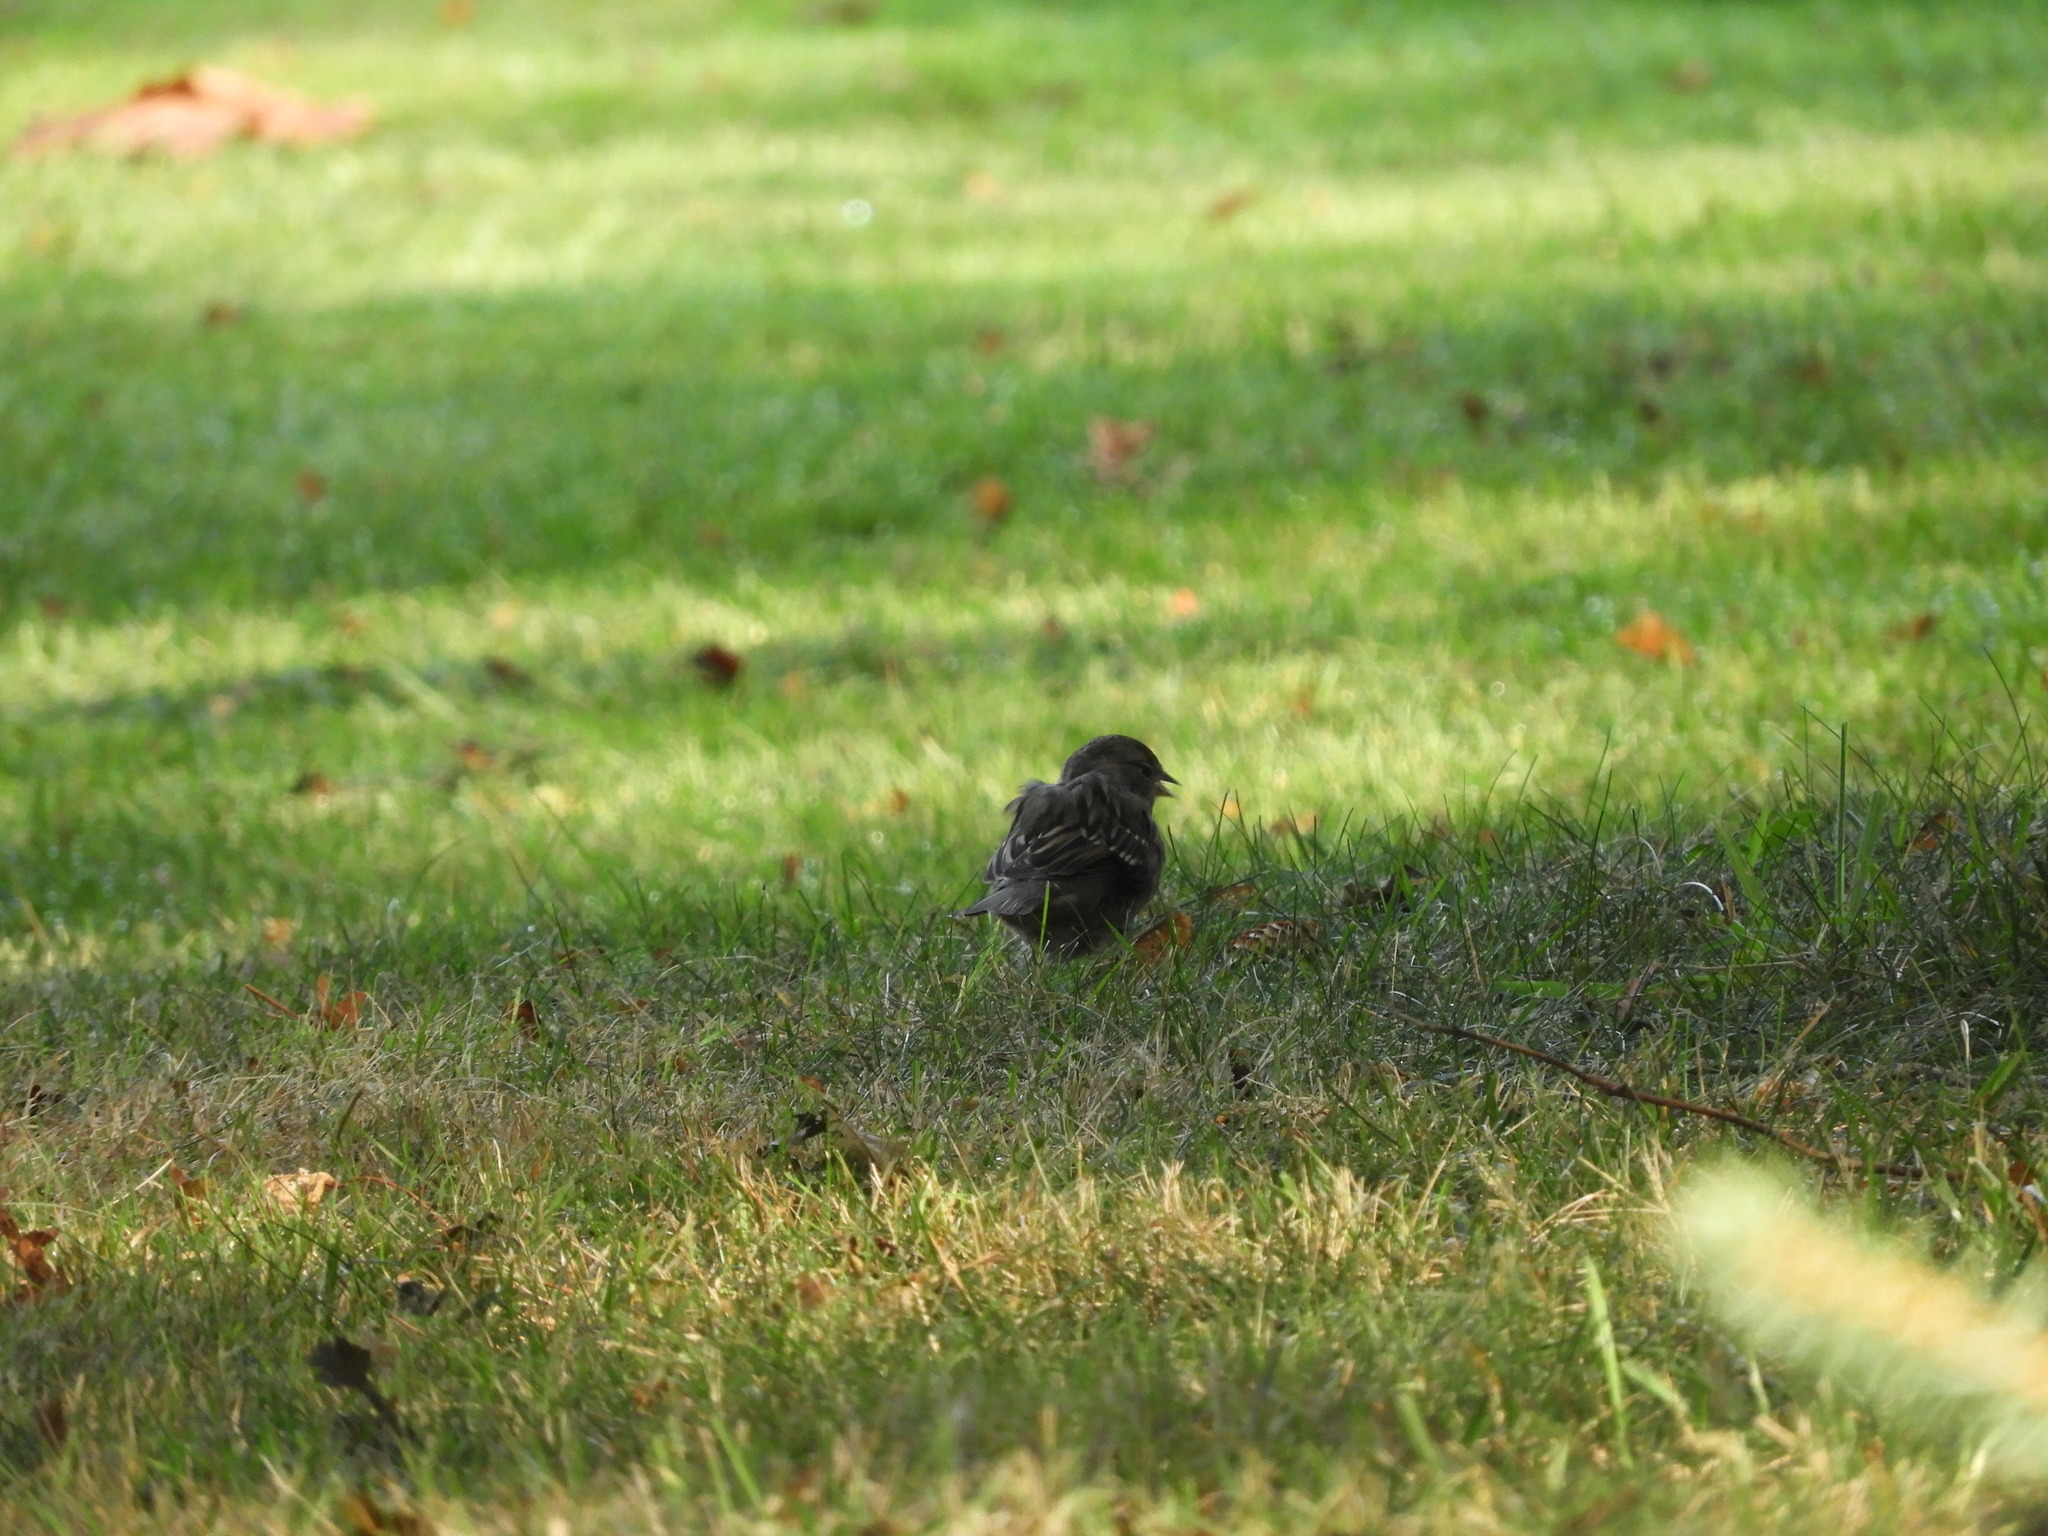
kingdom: Animalia
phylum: Chordata
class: Aves
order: Passeriformes
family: Passerellidae
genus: Zonotrichia
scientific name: Zonotrichia atricapilla
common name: Golden-crowned sparrow
